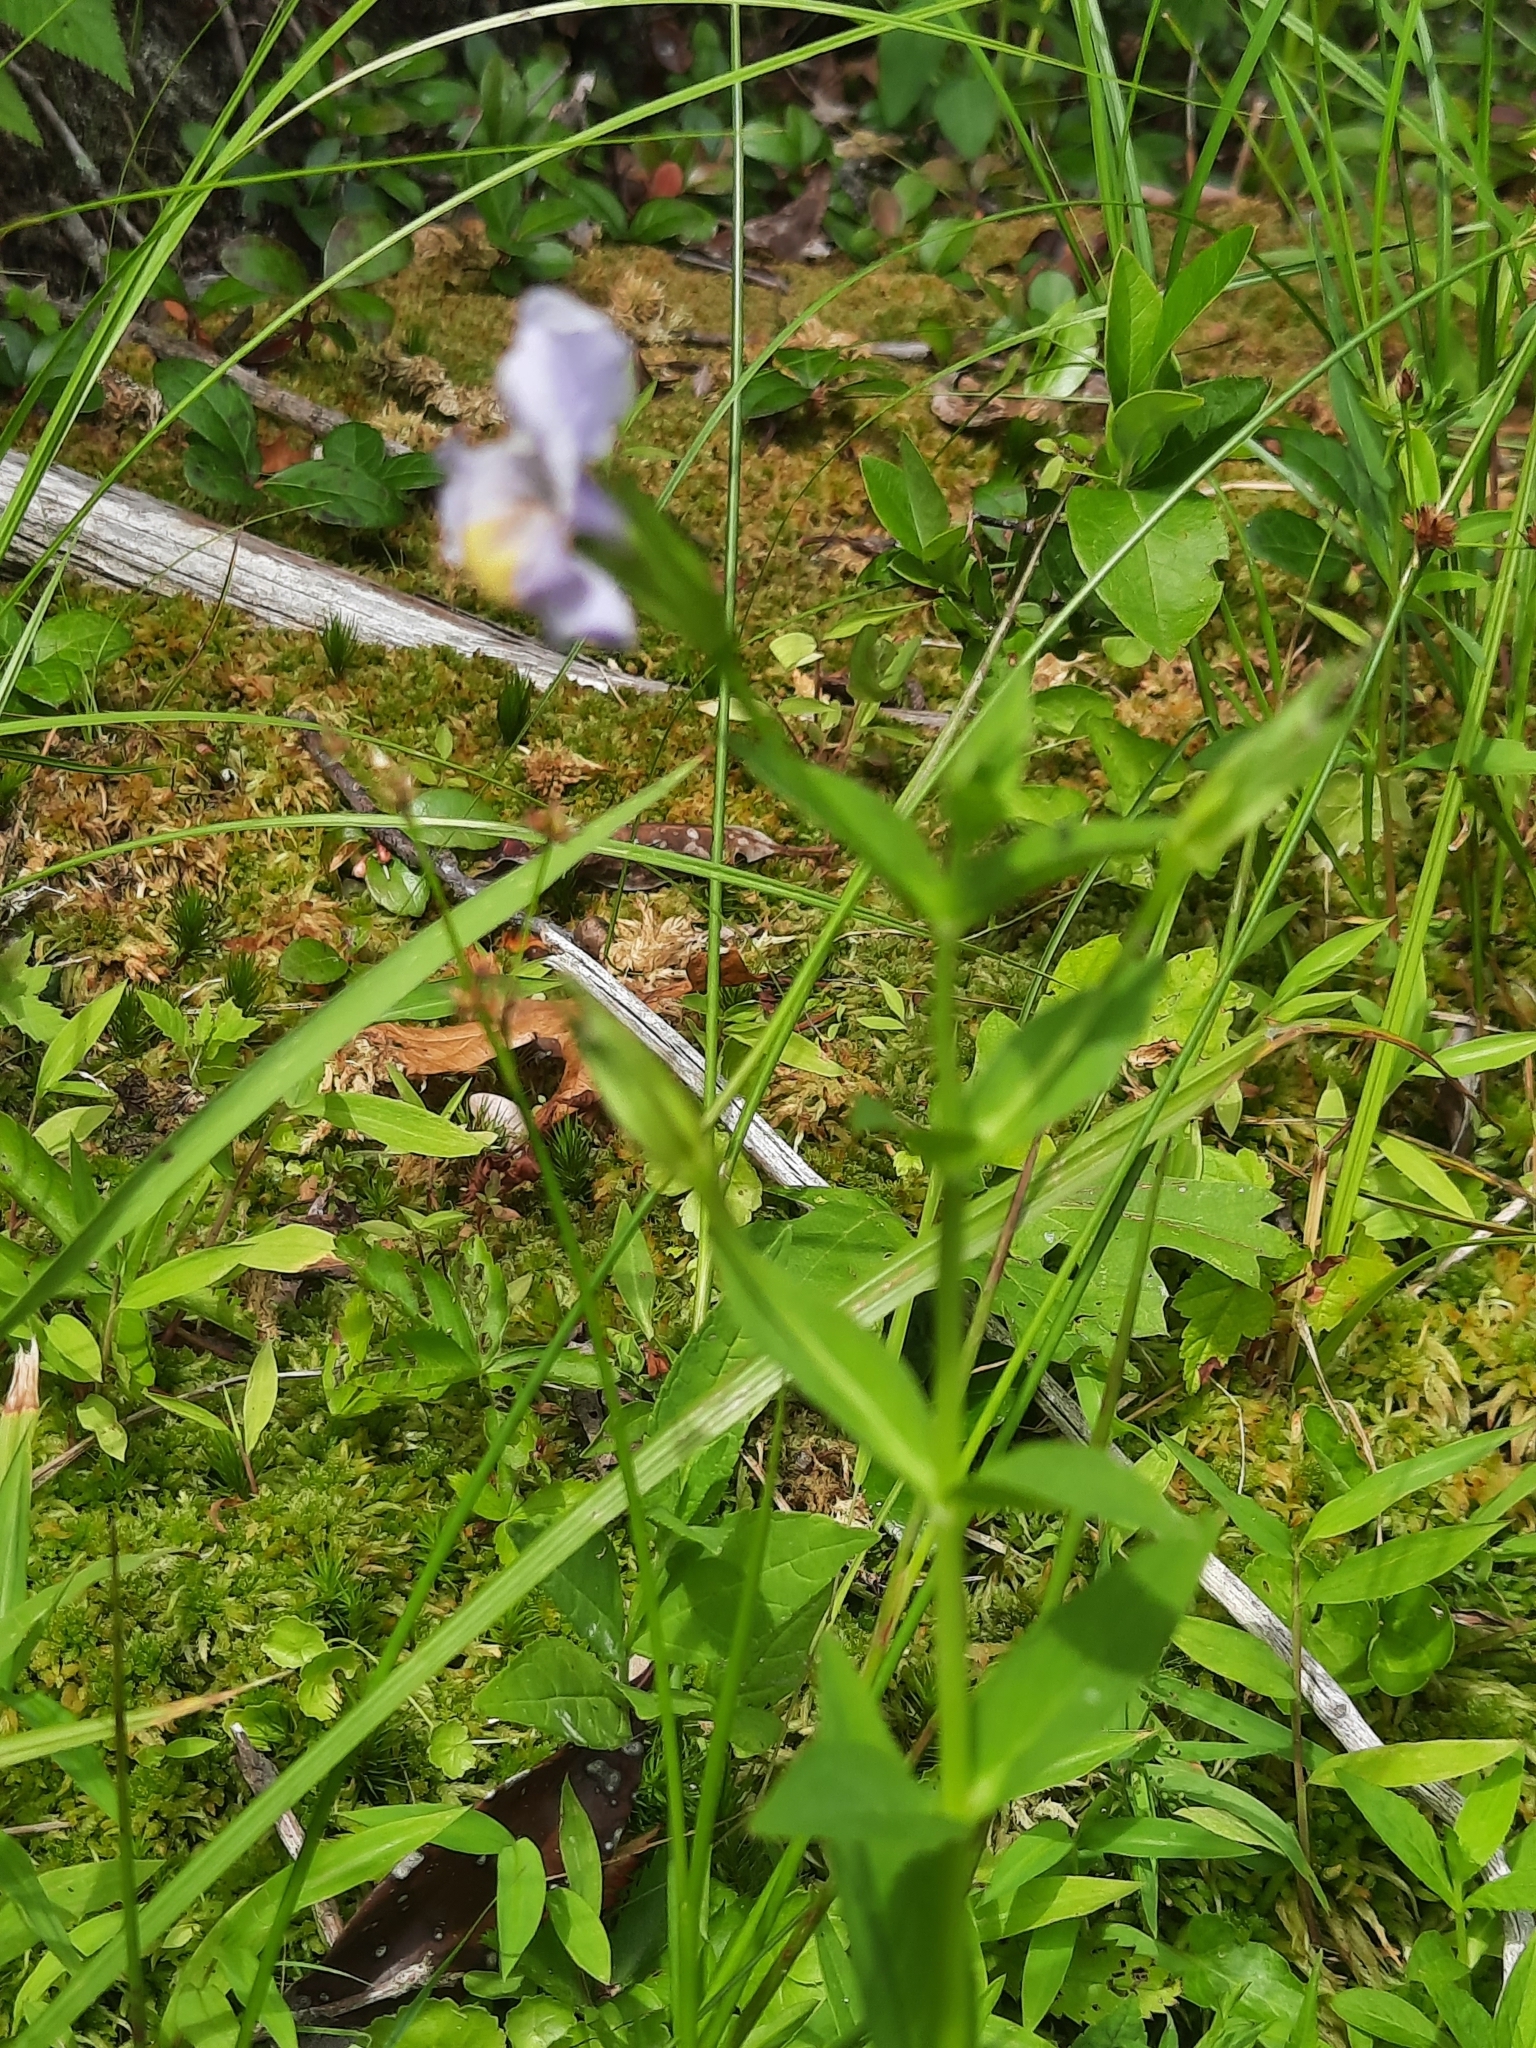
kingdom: Plantae
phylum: Tracheophyta
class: Magnoliopsida
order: Lamiales
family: Phrymaceae
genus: Mimulus
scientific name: Mimulus ringens
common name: Allegheny monkeyflower
